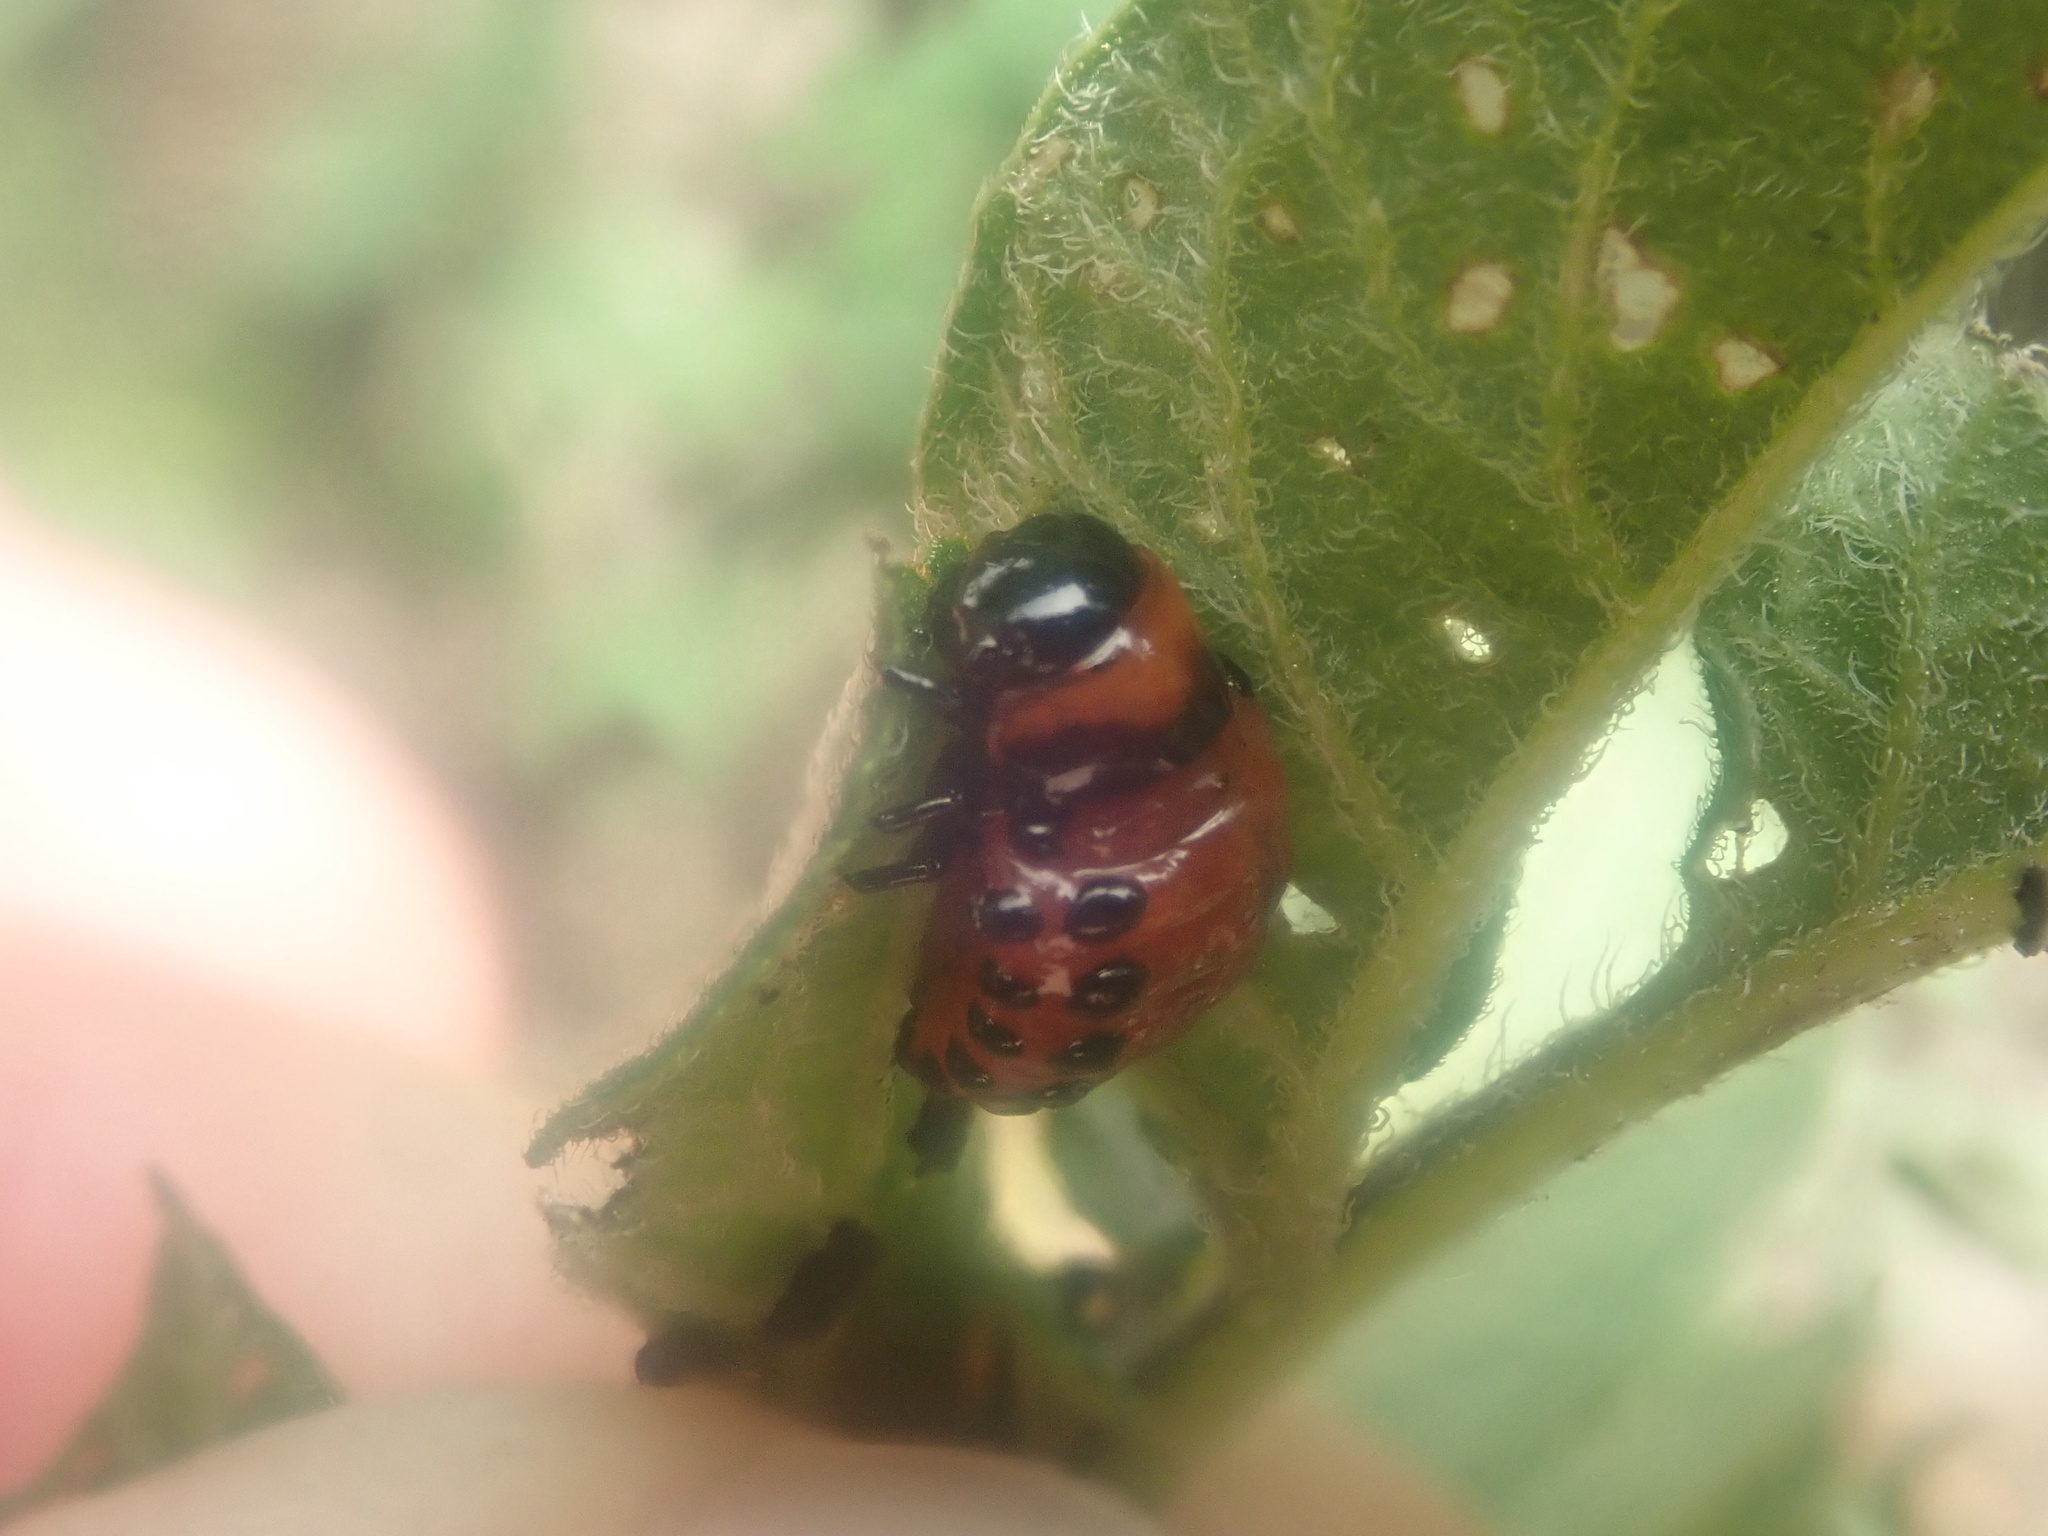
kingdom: Animalia
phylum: Arthropoda
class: Insecta
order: Coleoptera
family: Chrysomelidae
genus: Leptinotarsa
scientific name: Leptinotarsa decemlineata
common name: Colorado potato beetle
